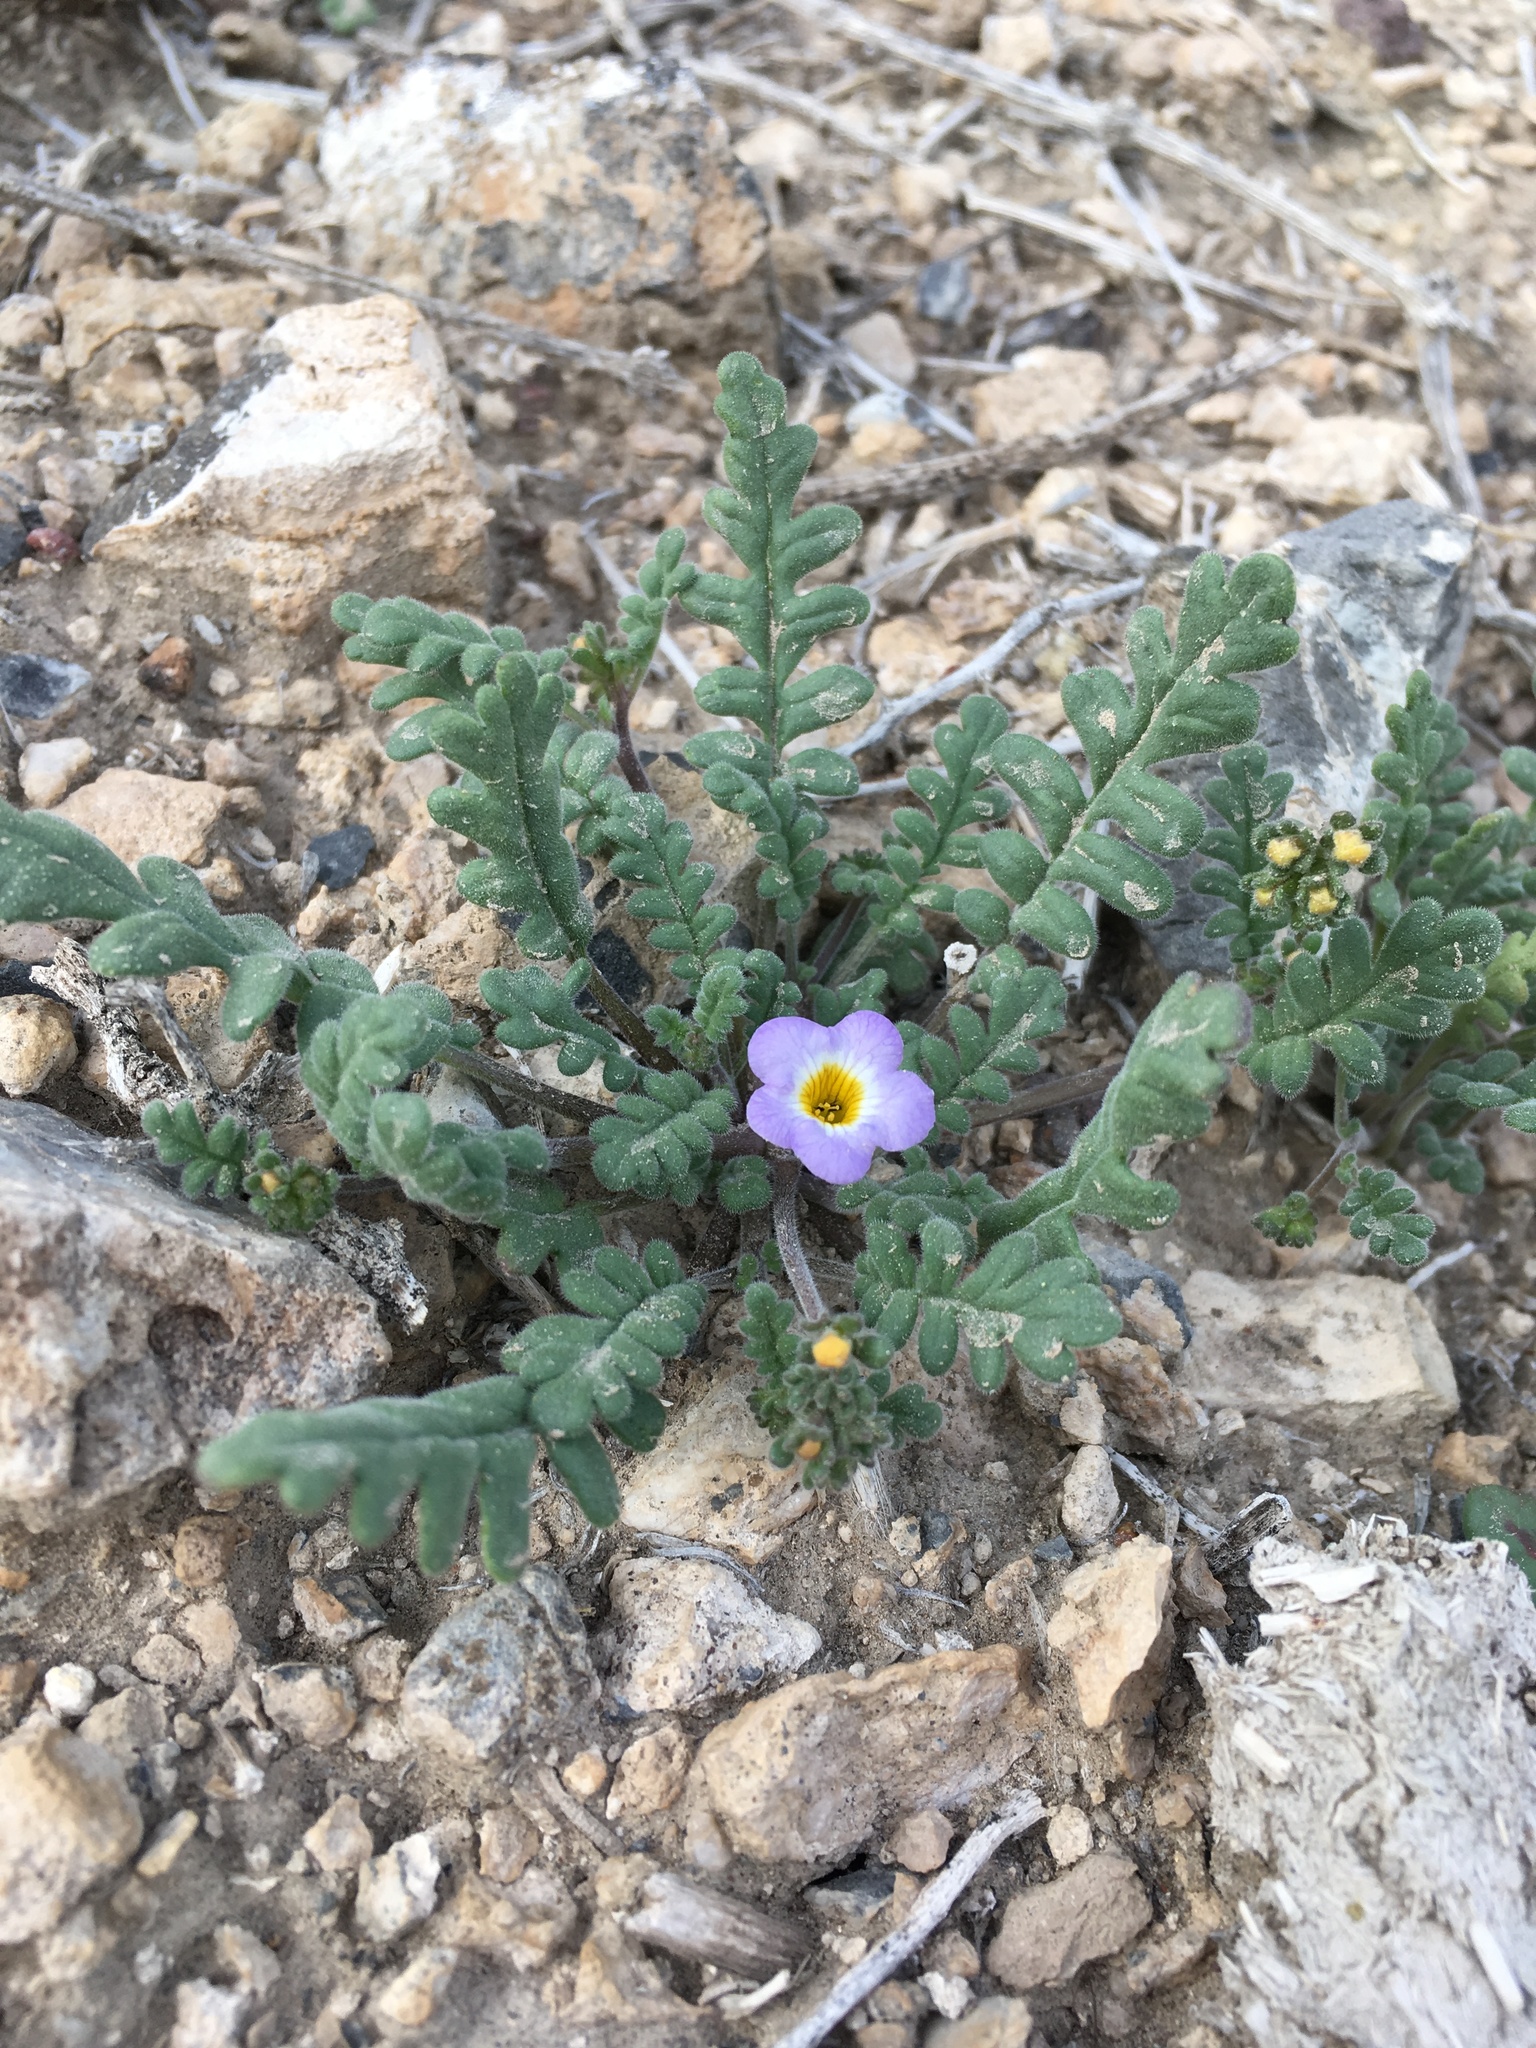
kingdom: Plantae
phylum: Tracheophyta
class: Magnoliopsida
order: Boraginales
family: Hydrophyllaceae
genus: Phacelia
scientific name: Phacelia fremontii
